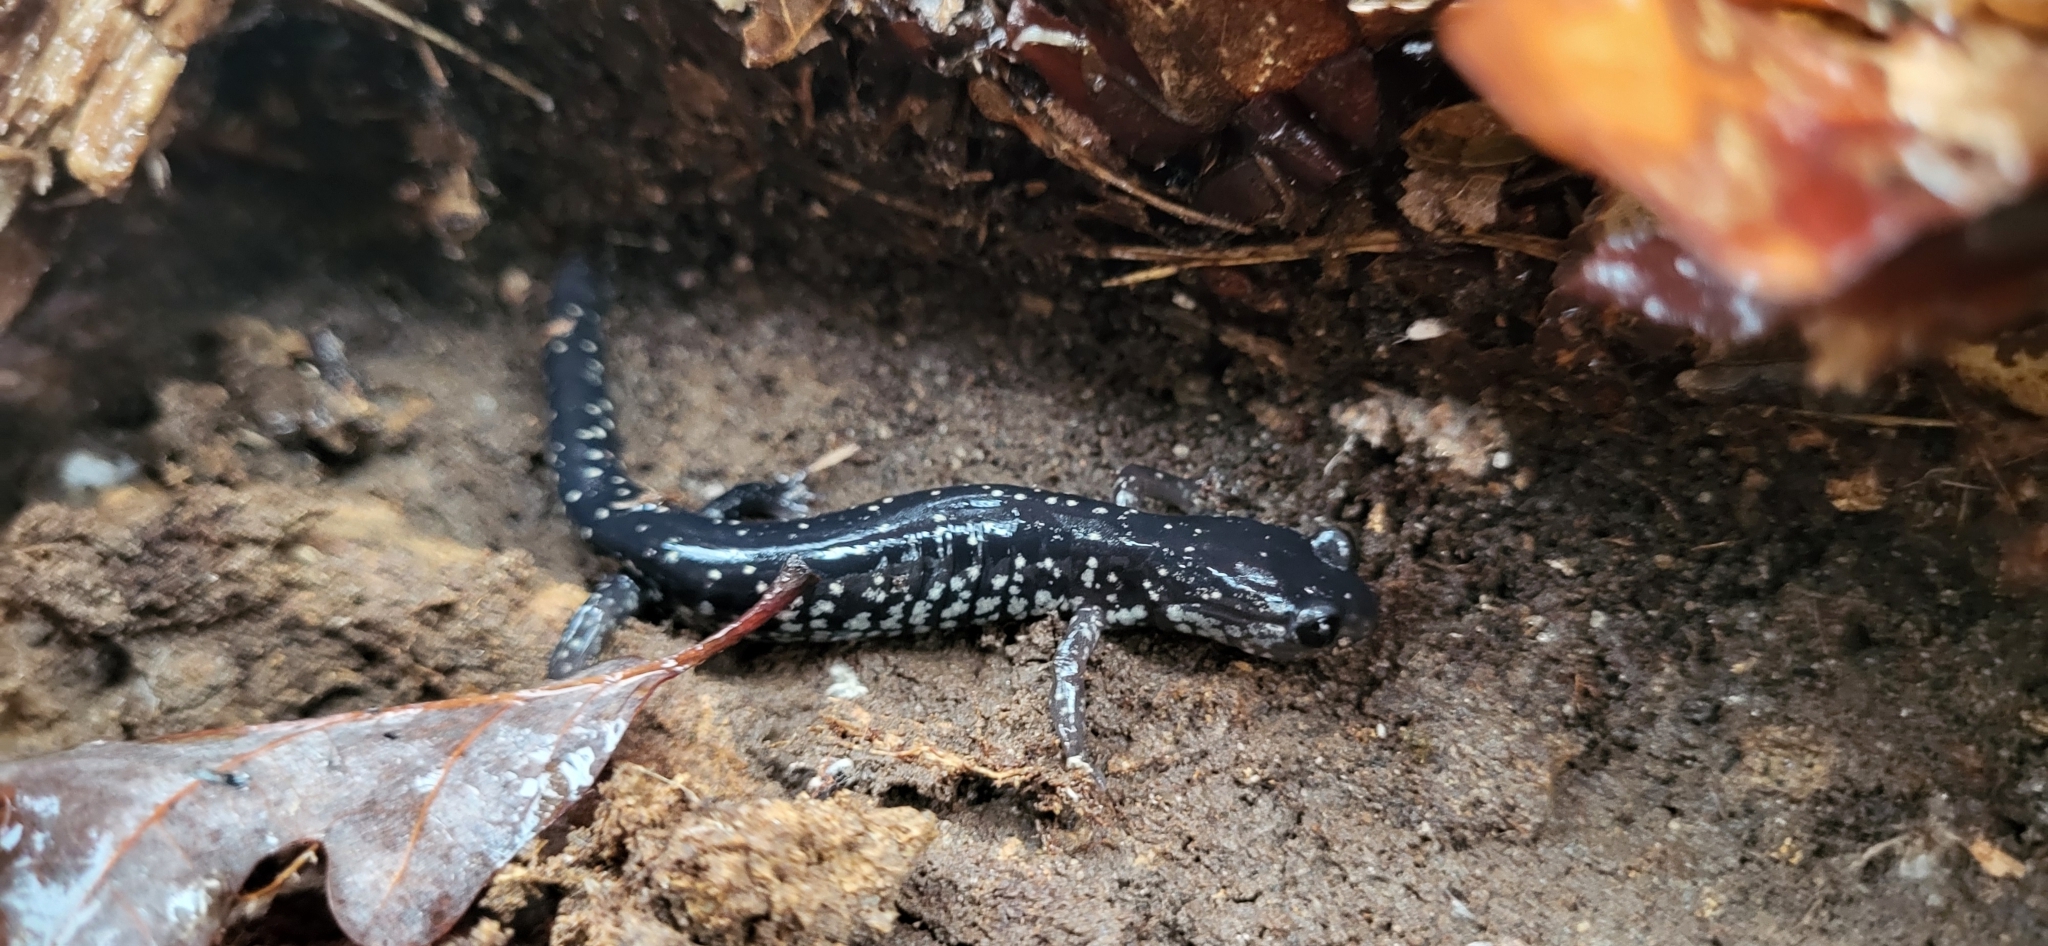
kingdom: Animalia
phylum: Chordata
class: Amphibia
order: Caudata
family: Plethodontidae
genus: Plethodon
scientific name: Plethodon mississippi
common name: Mississippi slimy salamander
